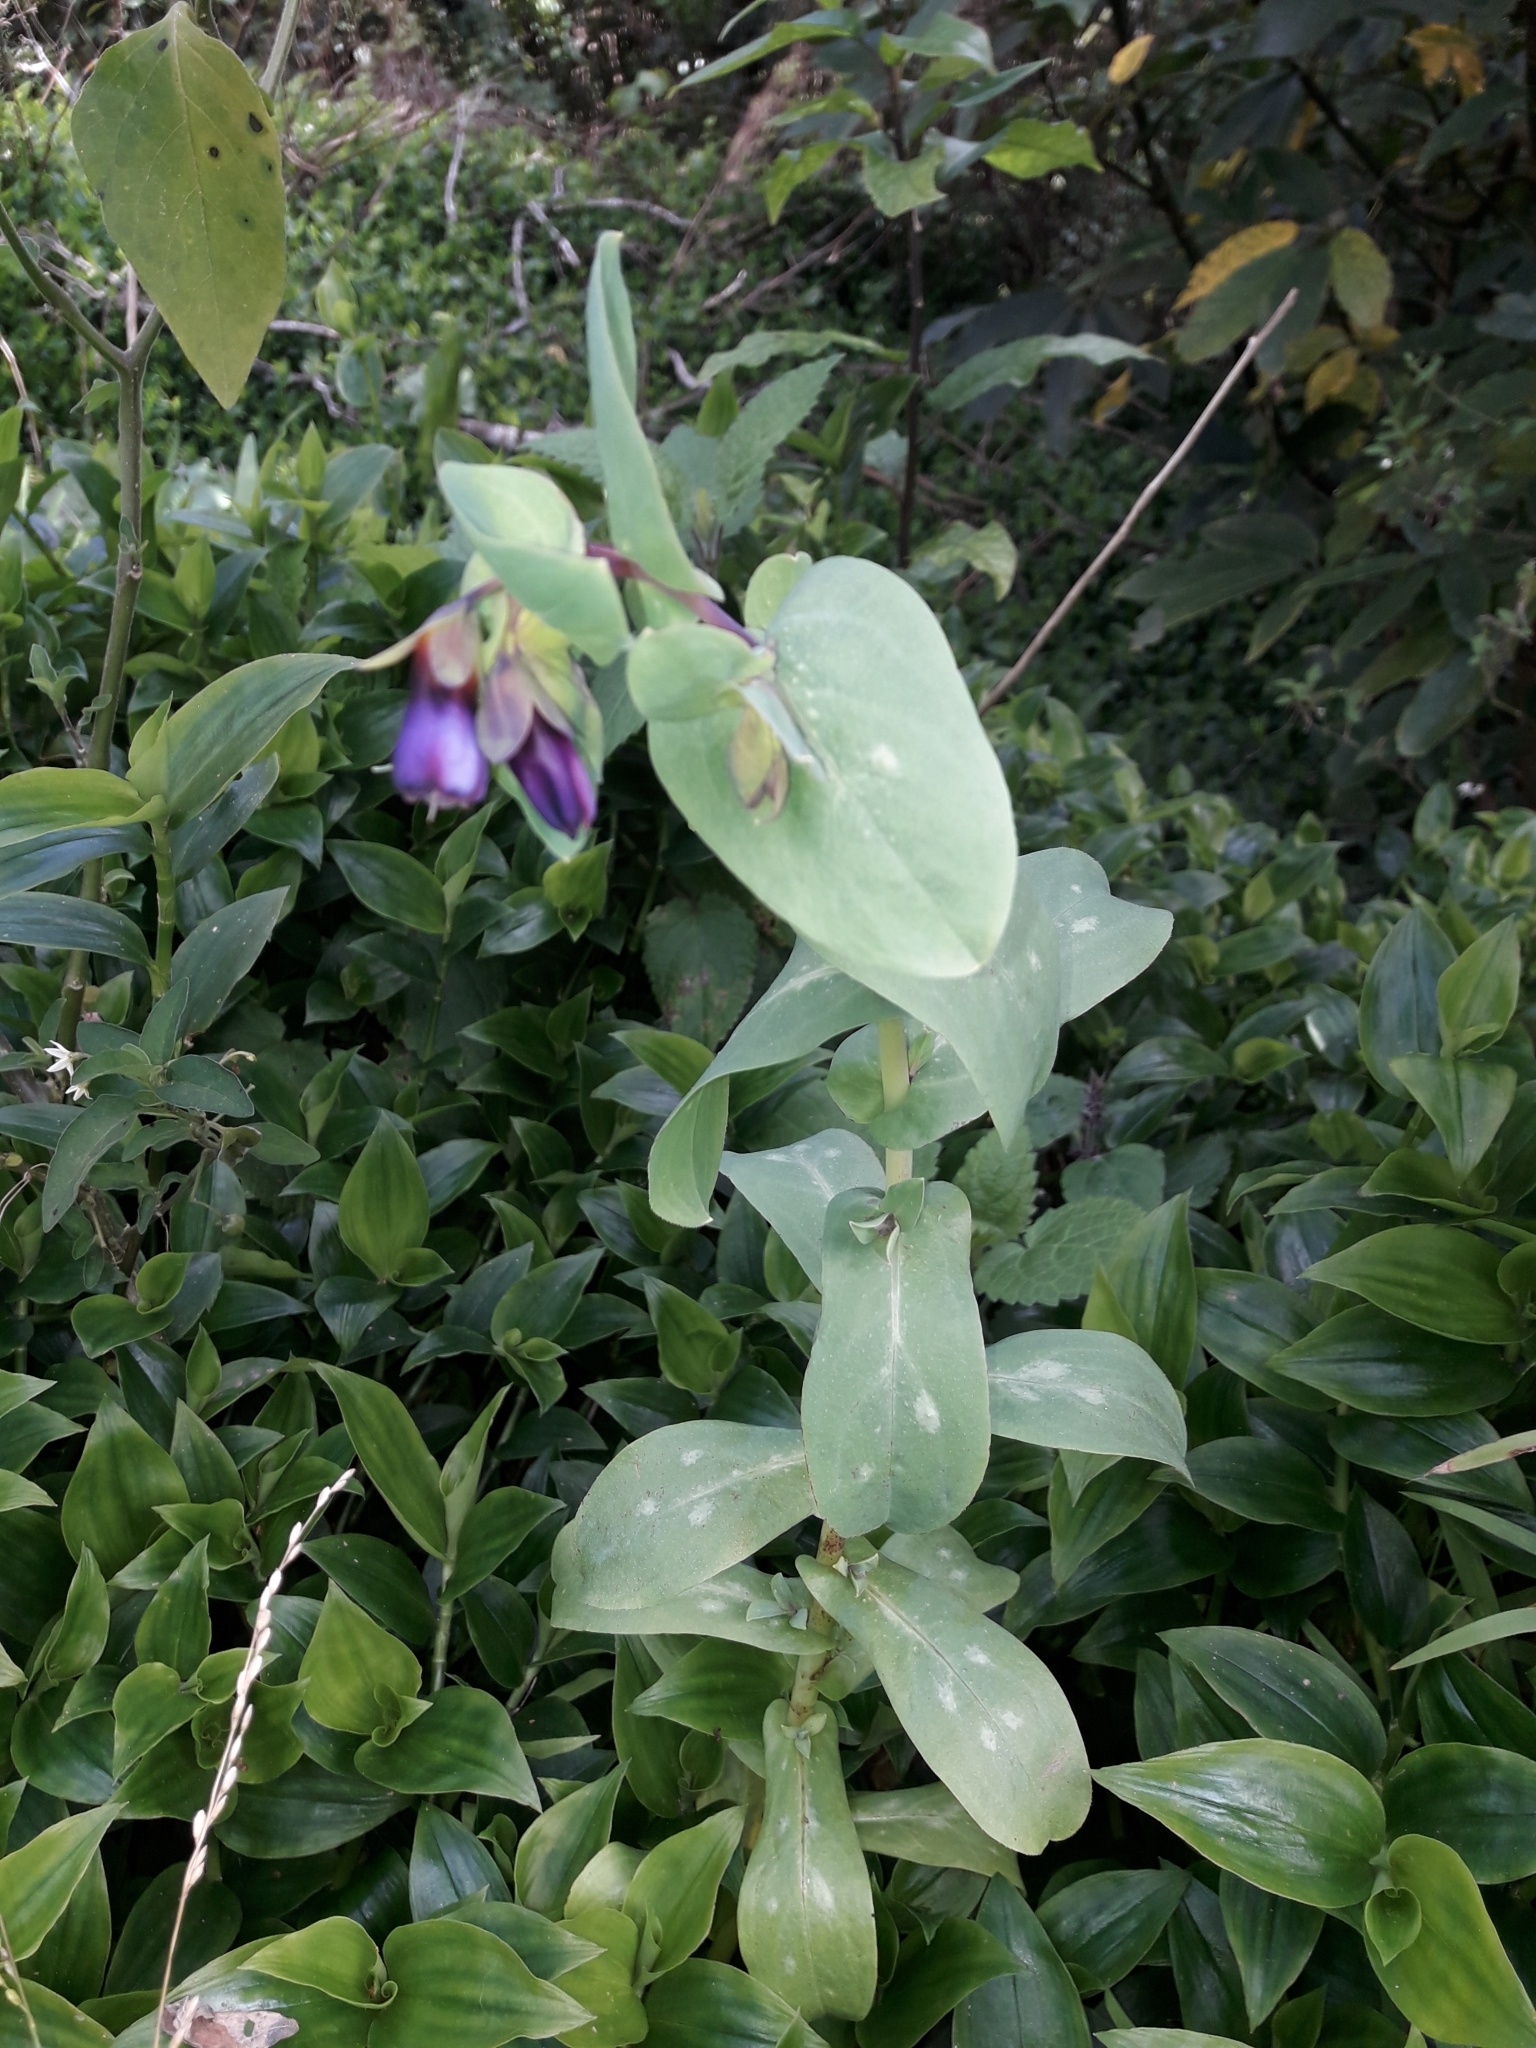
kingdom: Plantae
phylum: Tracheophyta
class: Magnoliopsida
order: Boraginales
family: Boraginaceae
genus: Cerinthe
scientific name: Cerinthe major
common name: Greater honeywort
